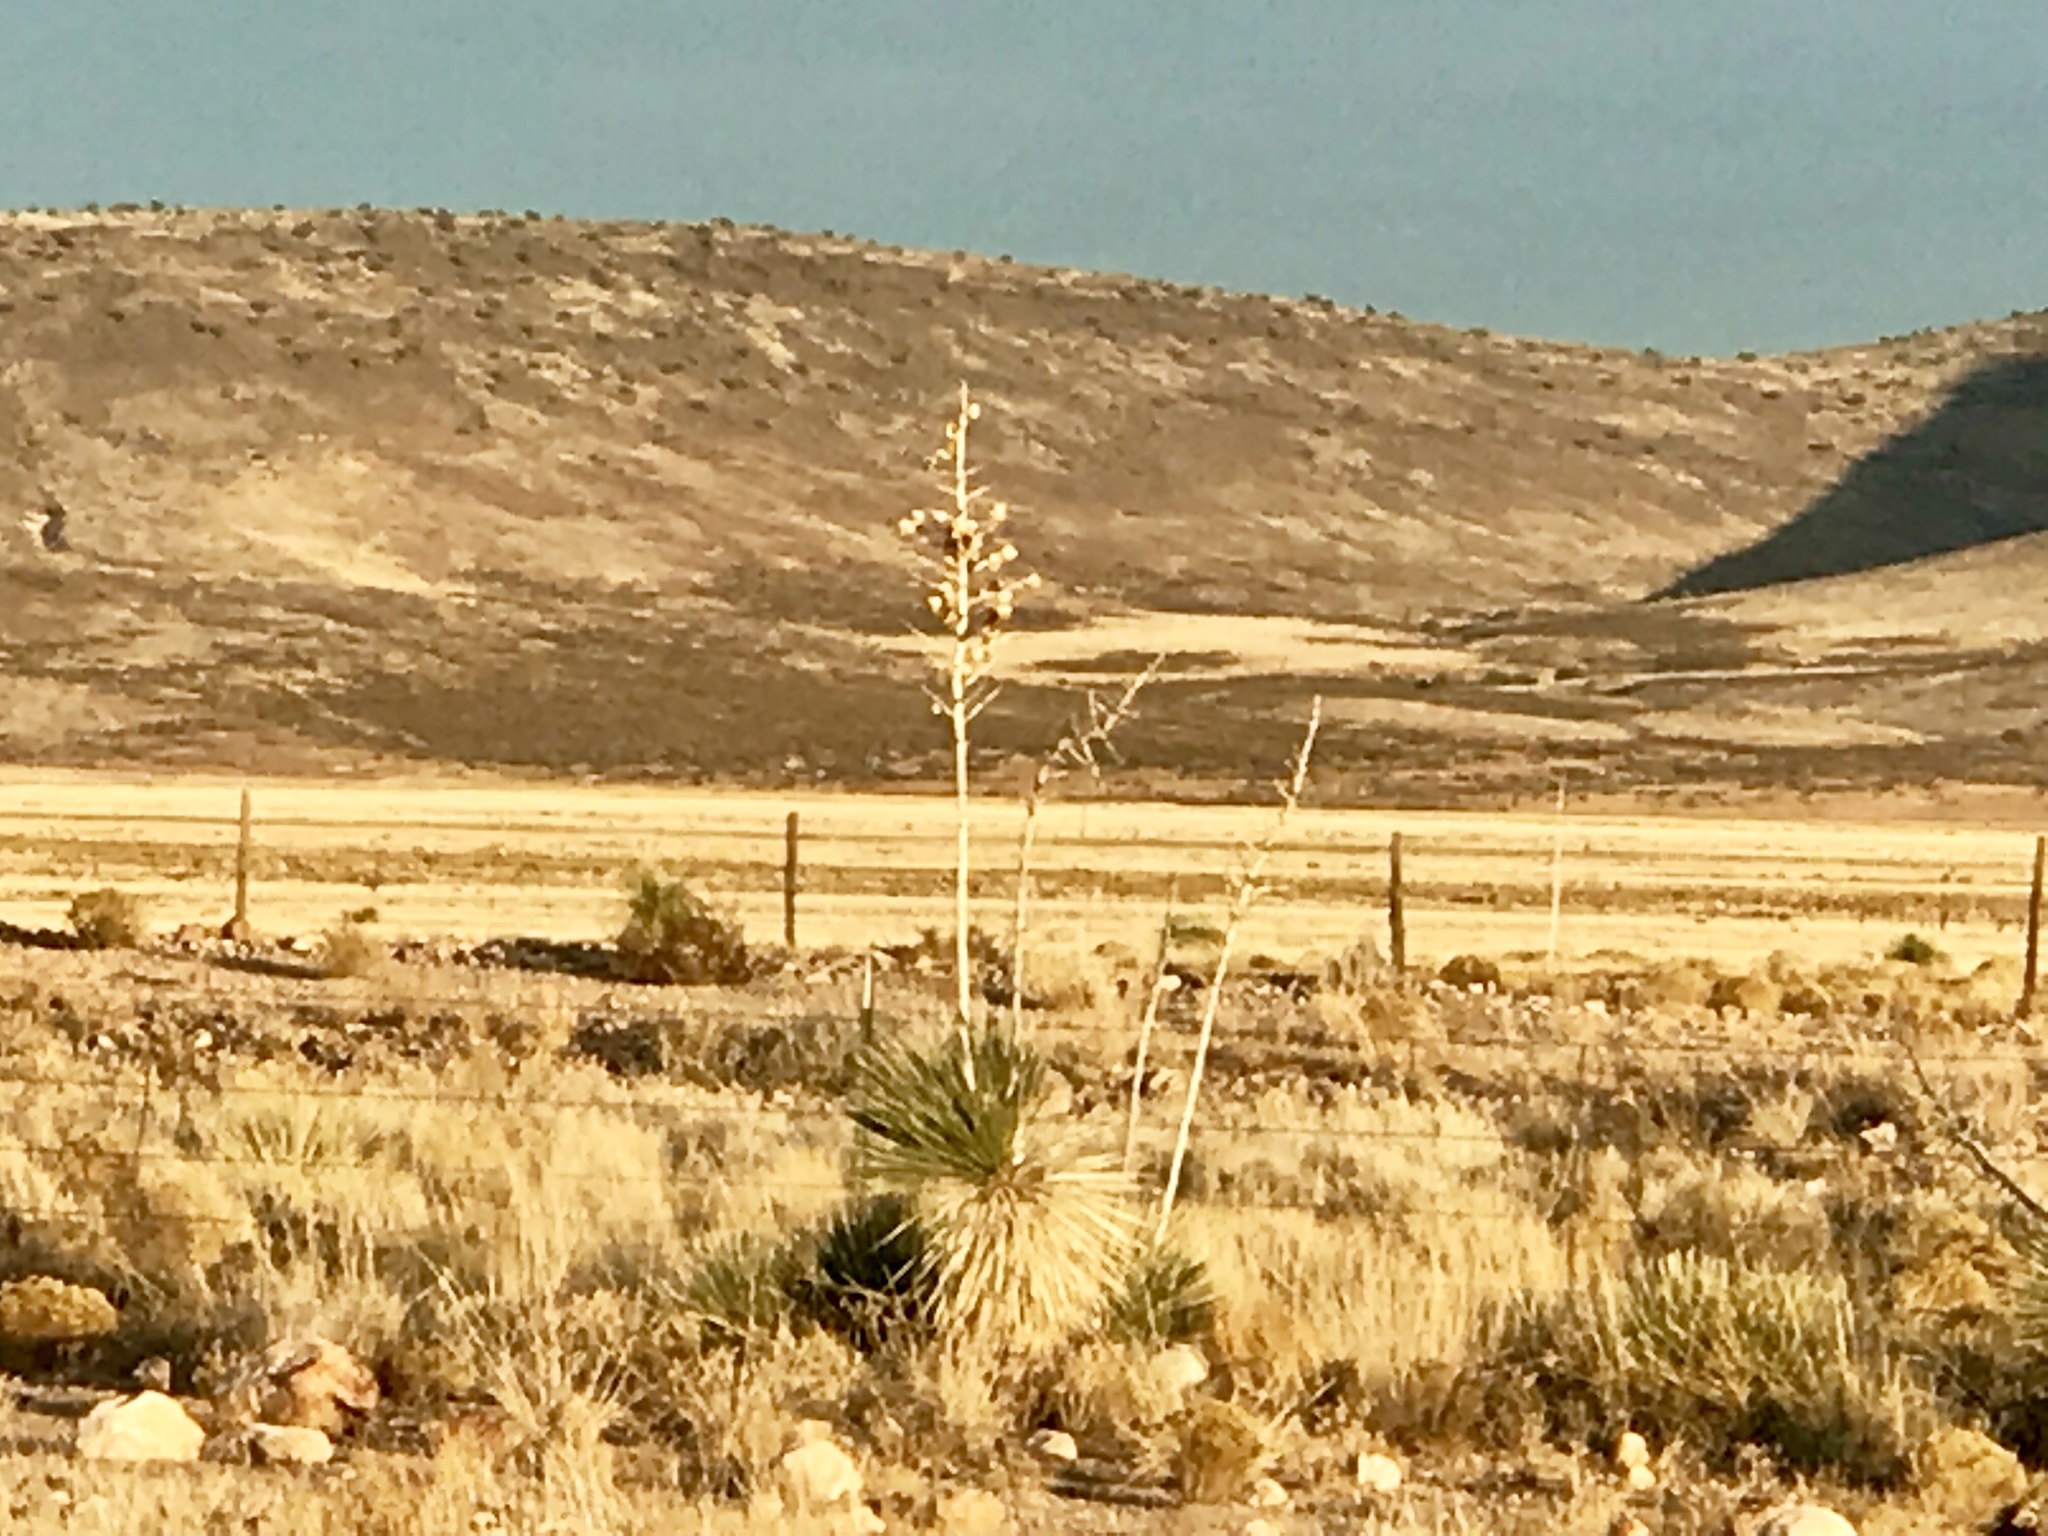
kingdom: Plantae
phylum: Tracheophyta
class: Liliopsida
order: Asparagales
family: Asparagaceae
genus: Yucca
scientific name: Yucca elata
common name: Palmella
